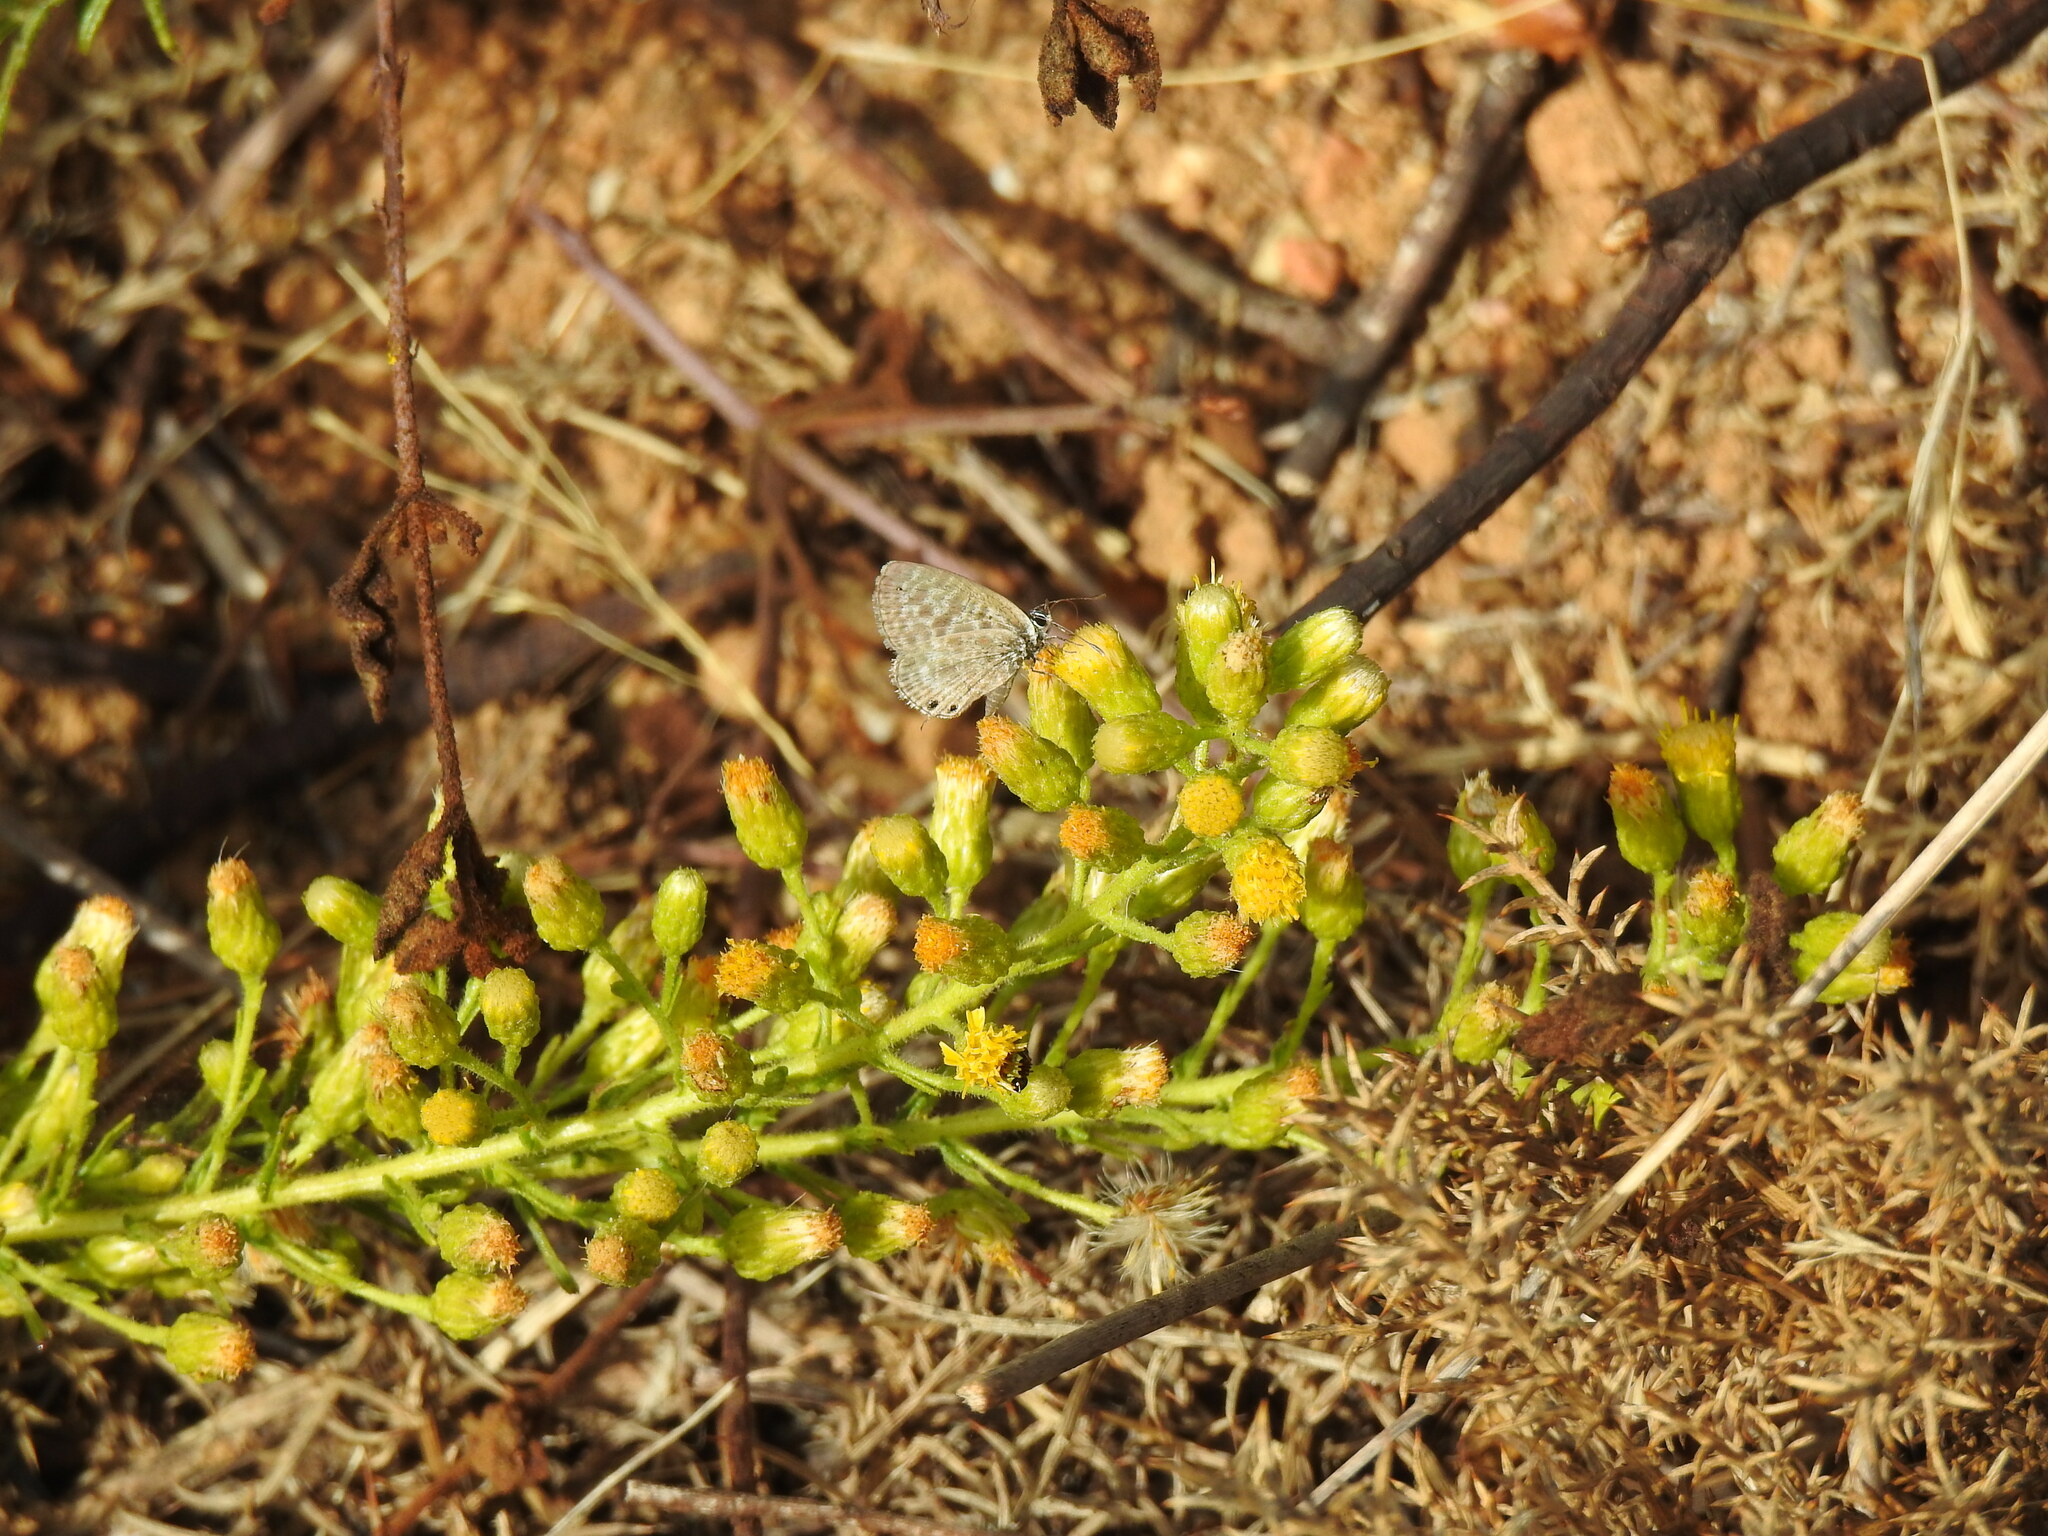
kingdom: Animalia
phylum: Arthropoda
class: Insecta
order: Lepidoptera
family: Lycaenidae
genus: Leptotes
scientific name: Leptotes pirithous
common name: Lang's short-tailed blue
